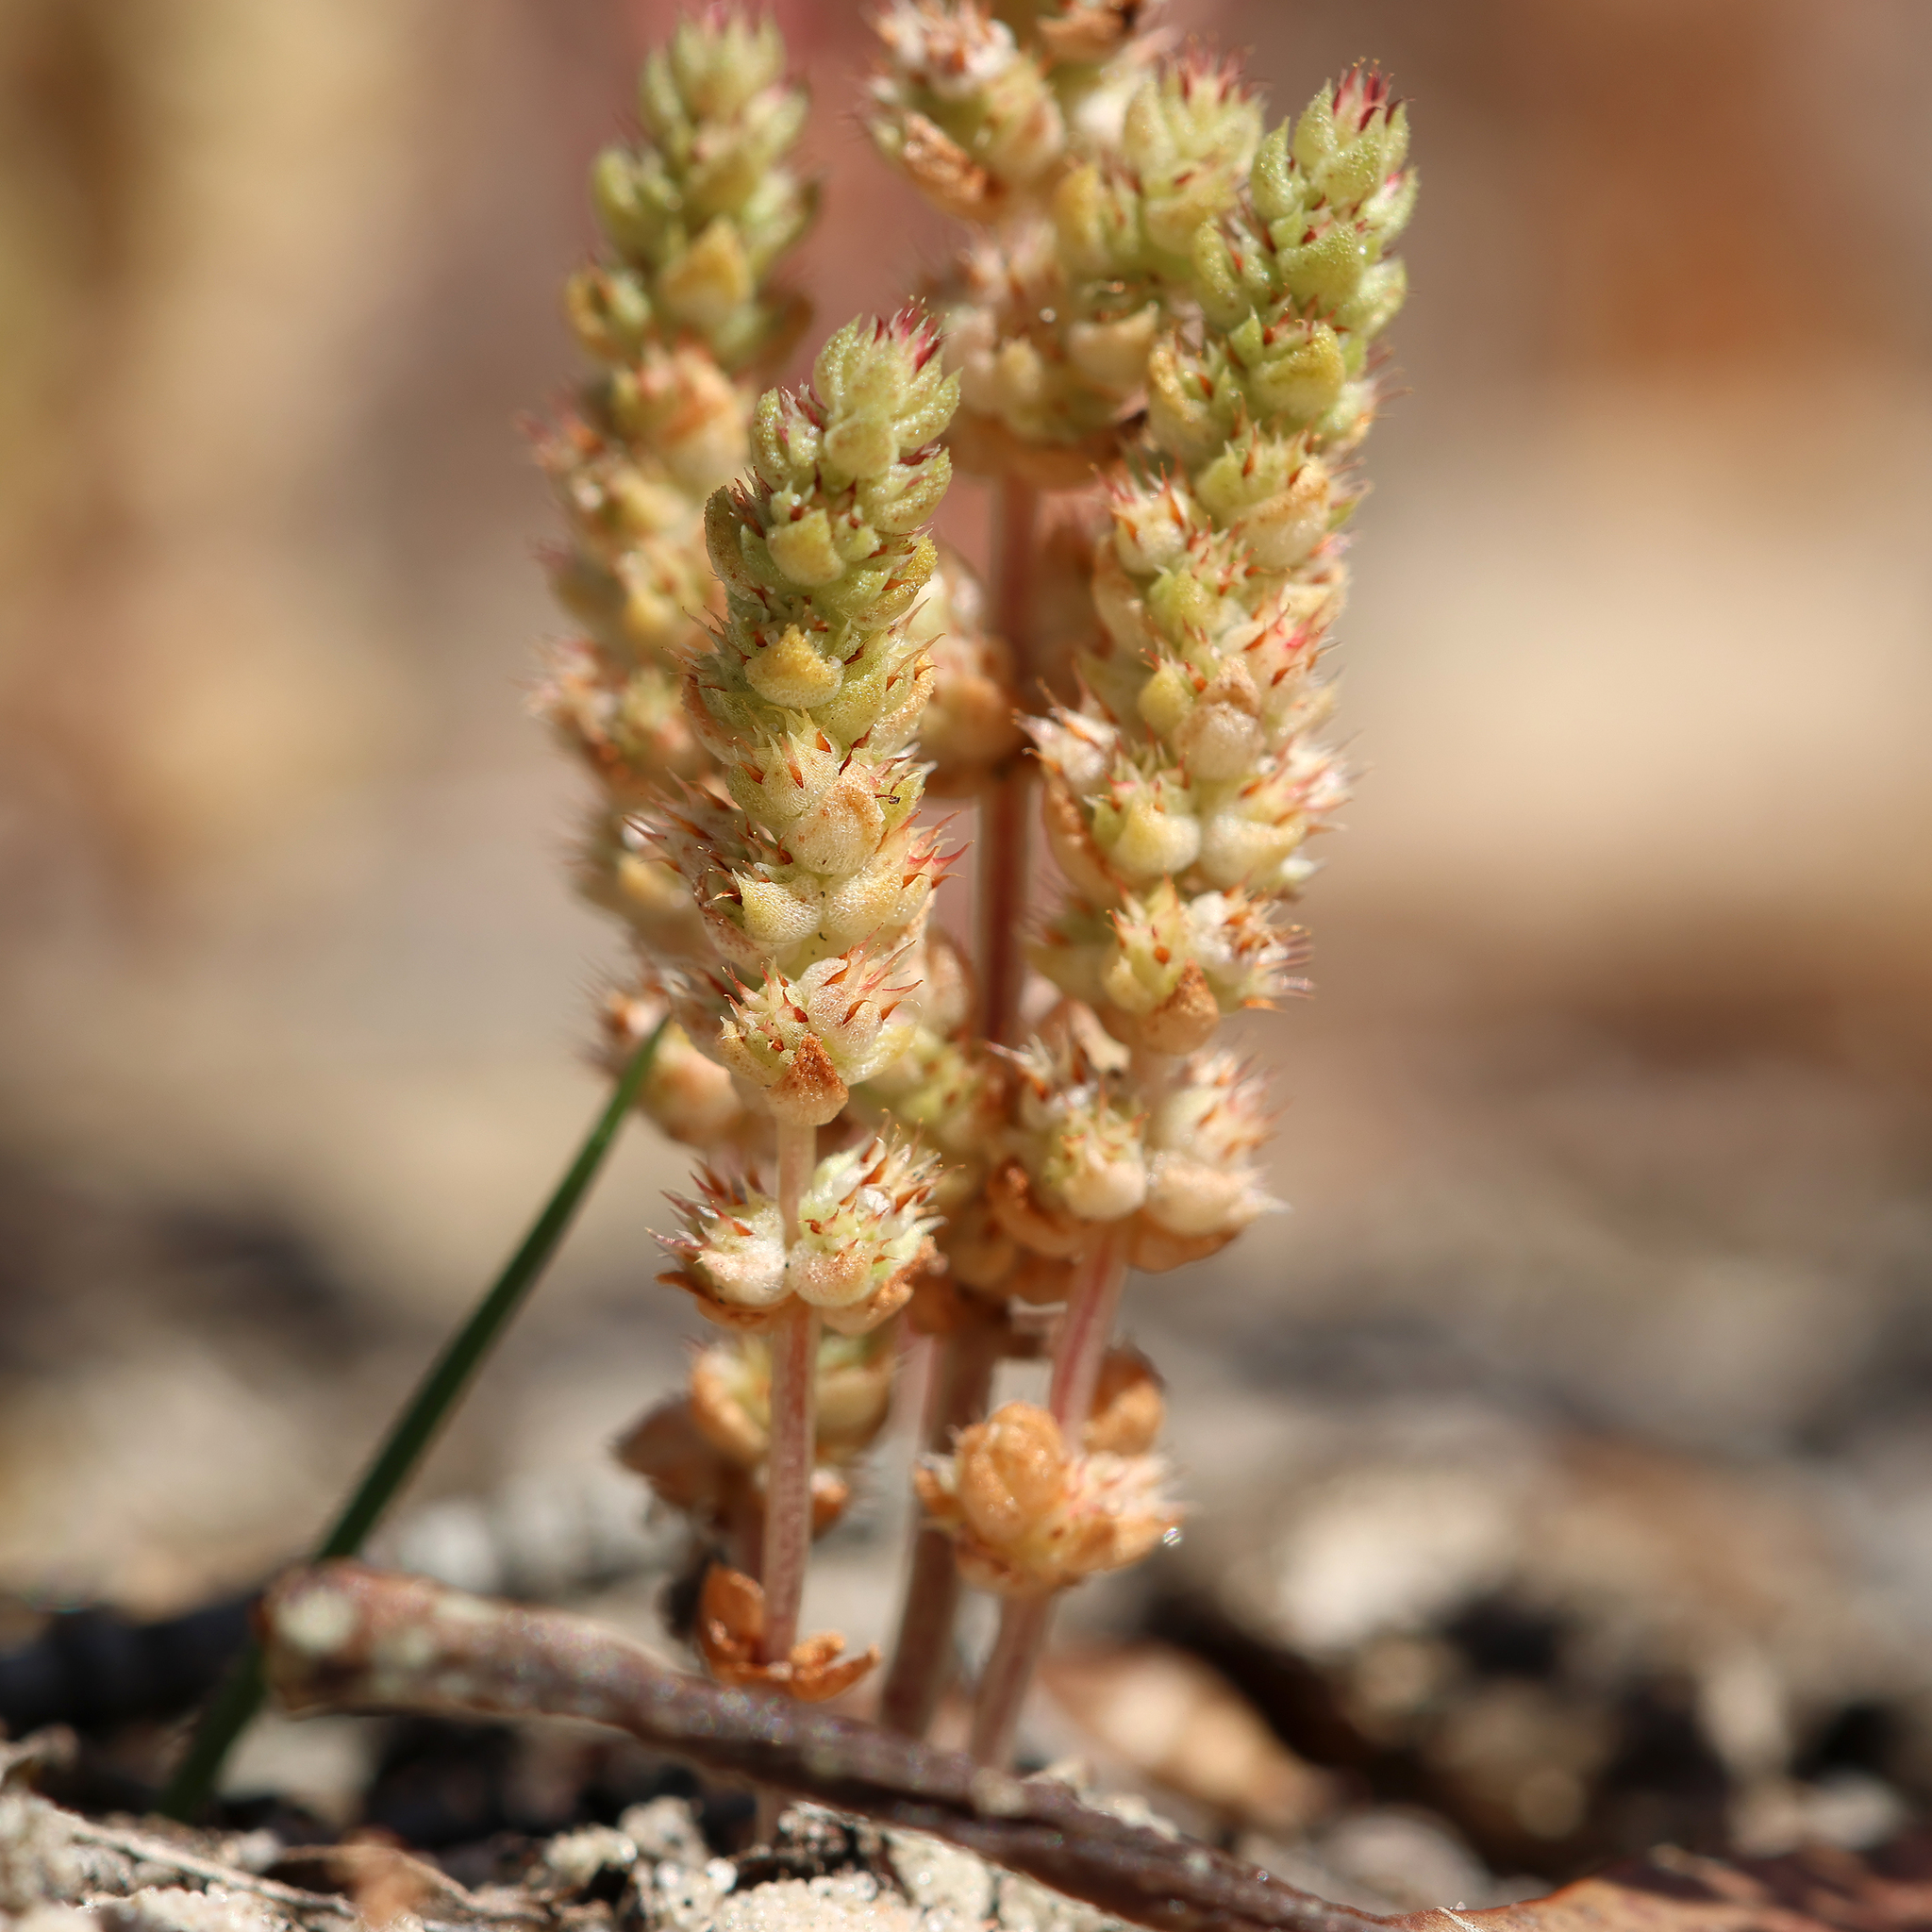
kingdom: Plantae
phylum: Tracheophyta
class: Magnoliopsida
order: Saxifragales
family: Crassulaceae
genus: Crassula
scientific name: Crassula colorata
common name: Dense pigmyweed
